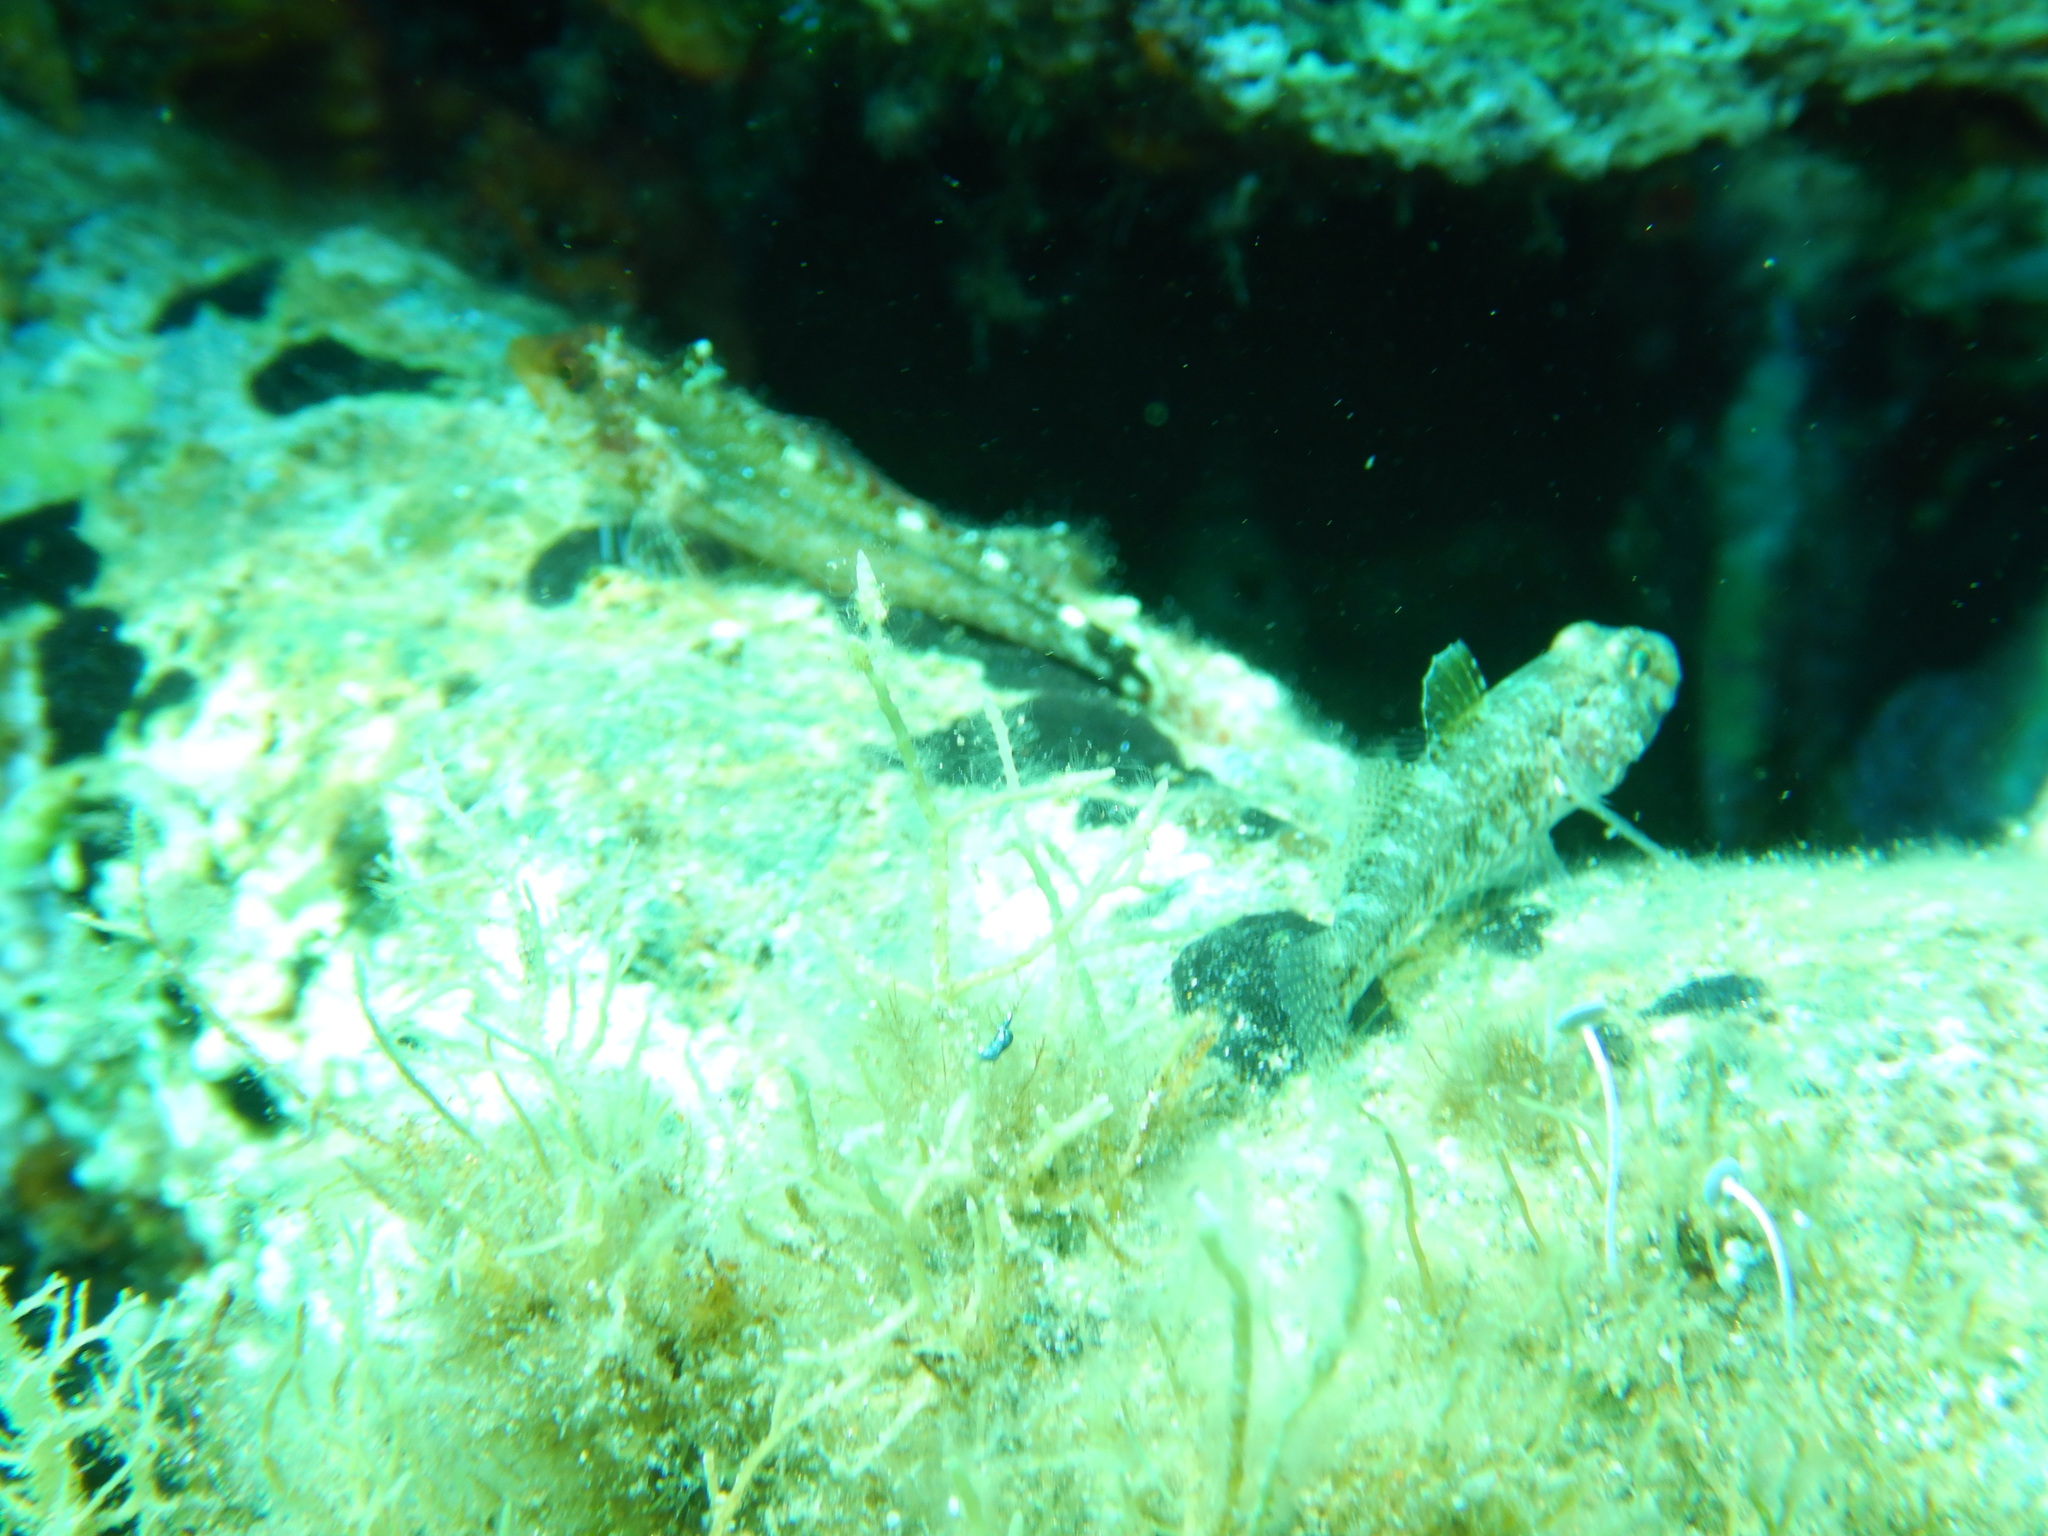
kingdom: Animalia
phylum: Chordata
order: Perciformes
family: Gobiidae
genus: Gobius
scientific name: Gobius cruentatus
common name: Red-mouthed goby
